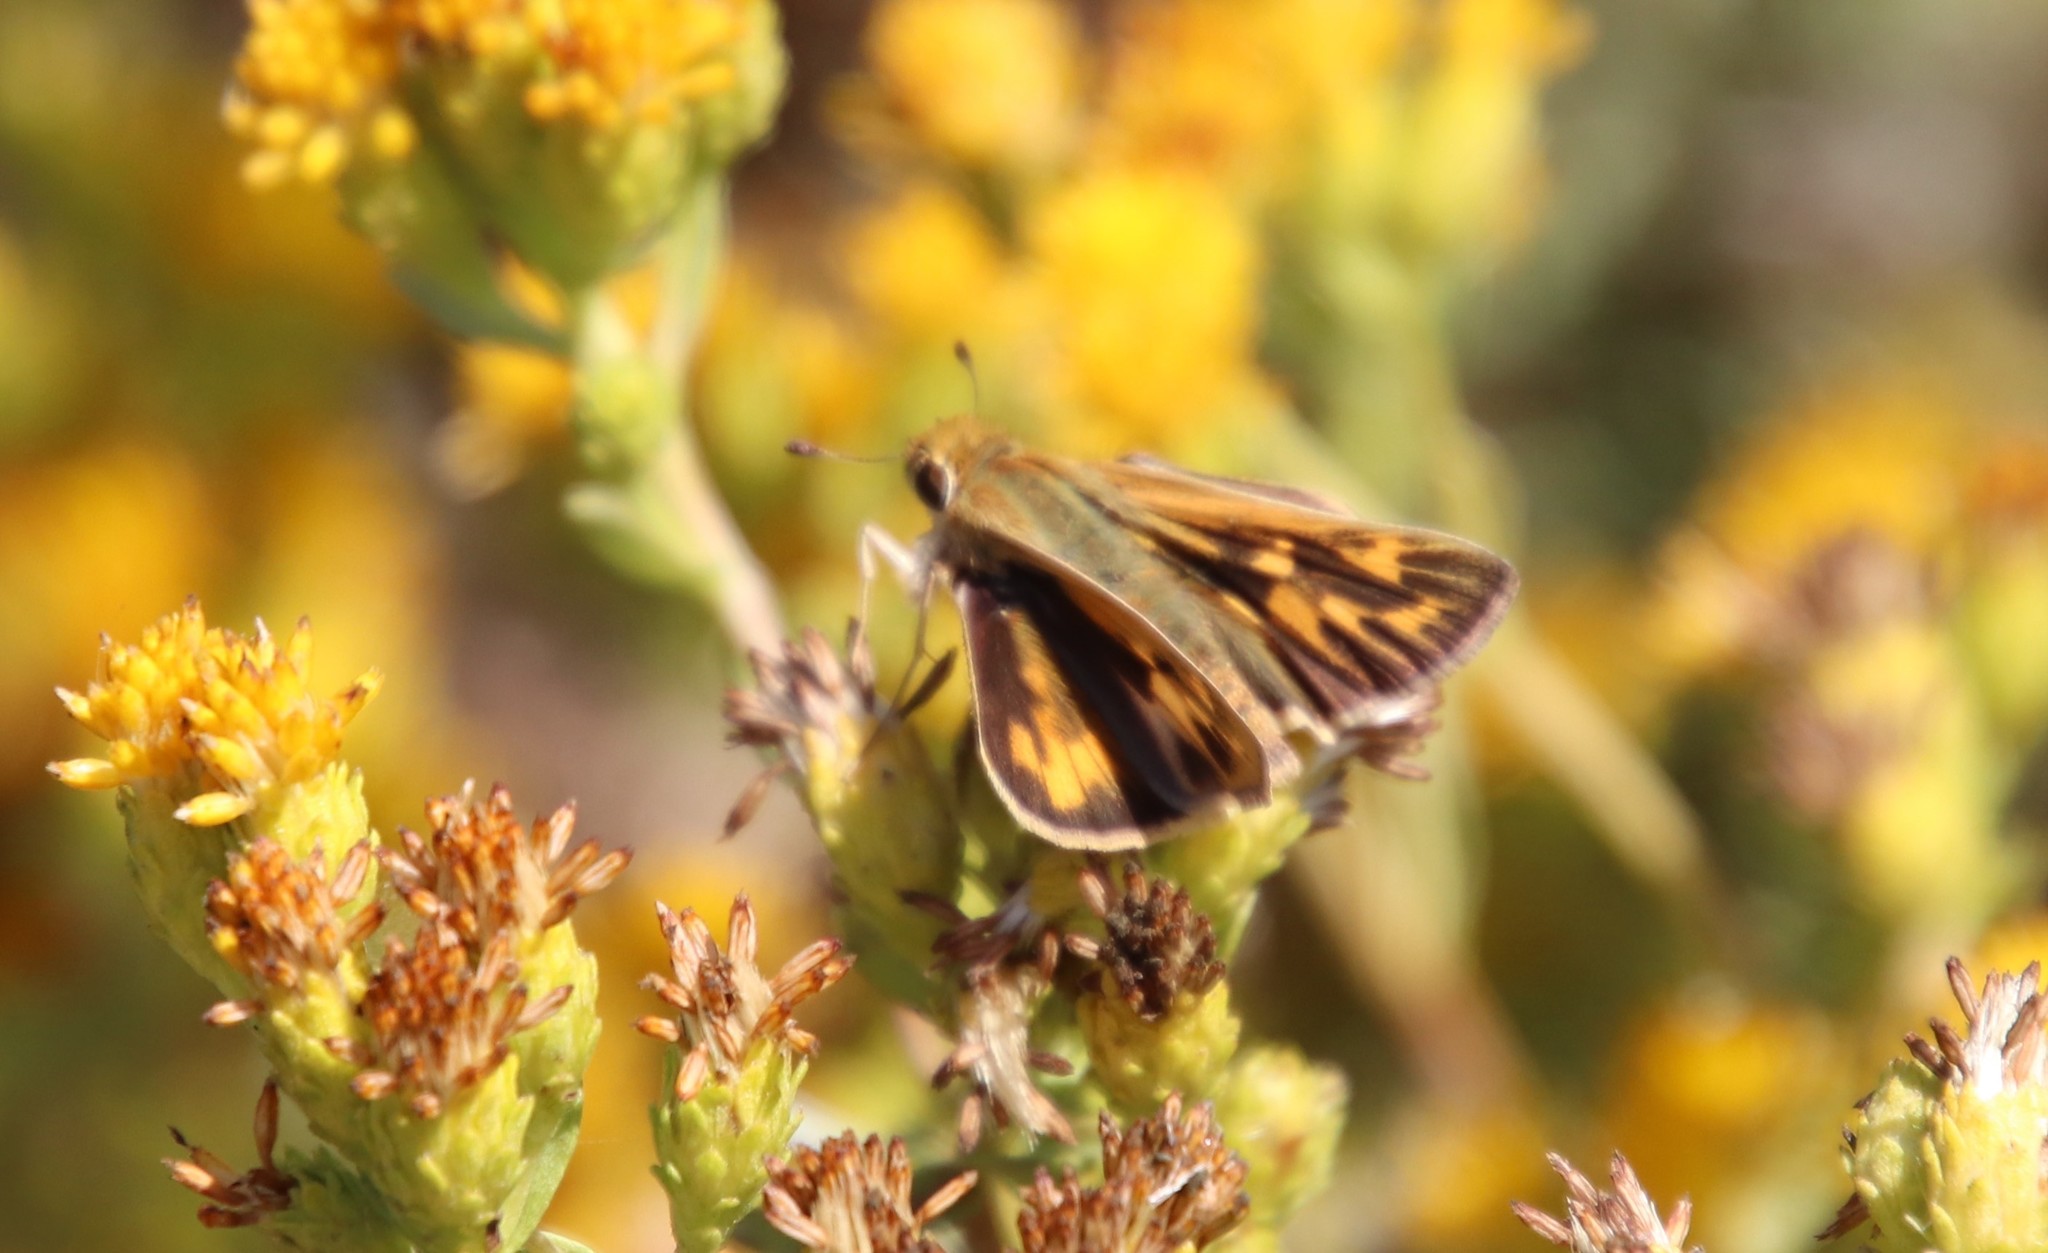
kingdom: Animalia
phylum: Arthropoda
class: Insecta
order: Lepidoptera
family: Hesperiidae
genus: Hylephila
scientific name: Hylephila phyleus
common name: Fiery skipper
